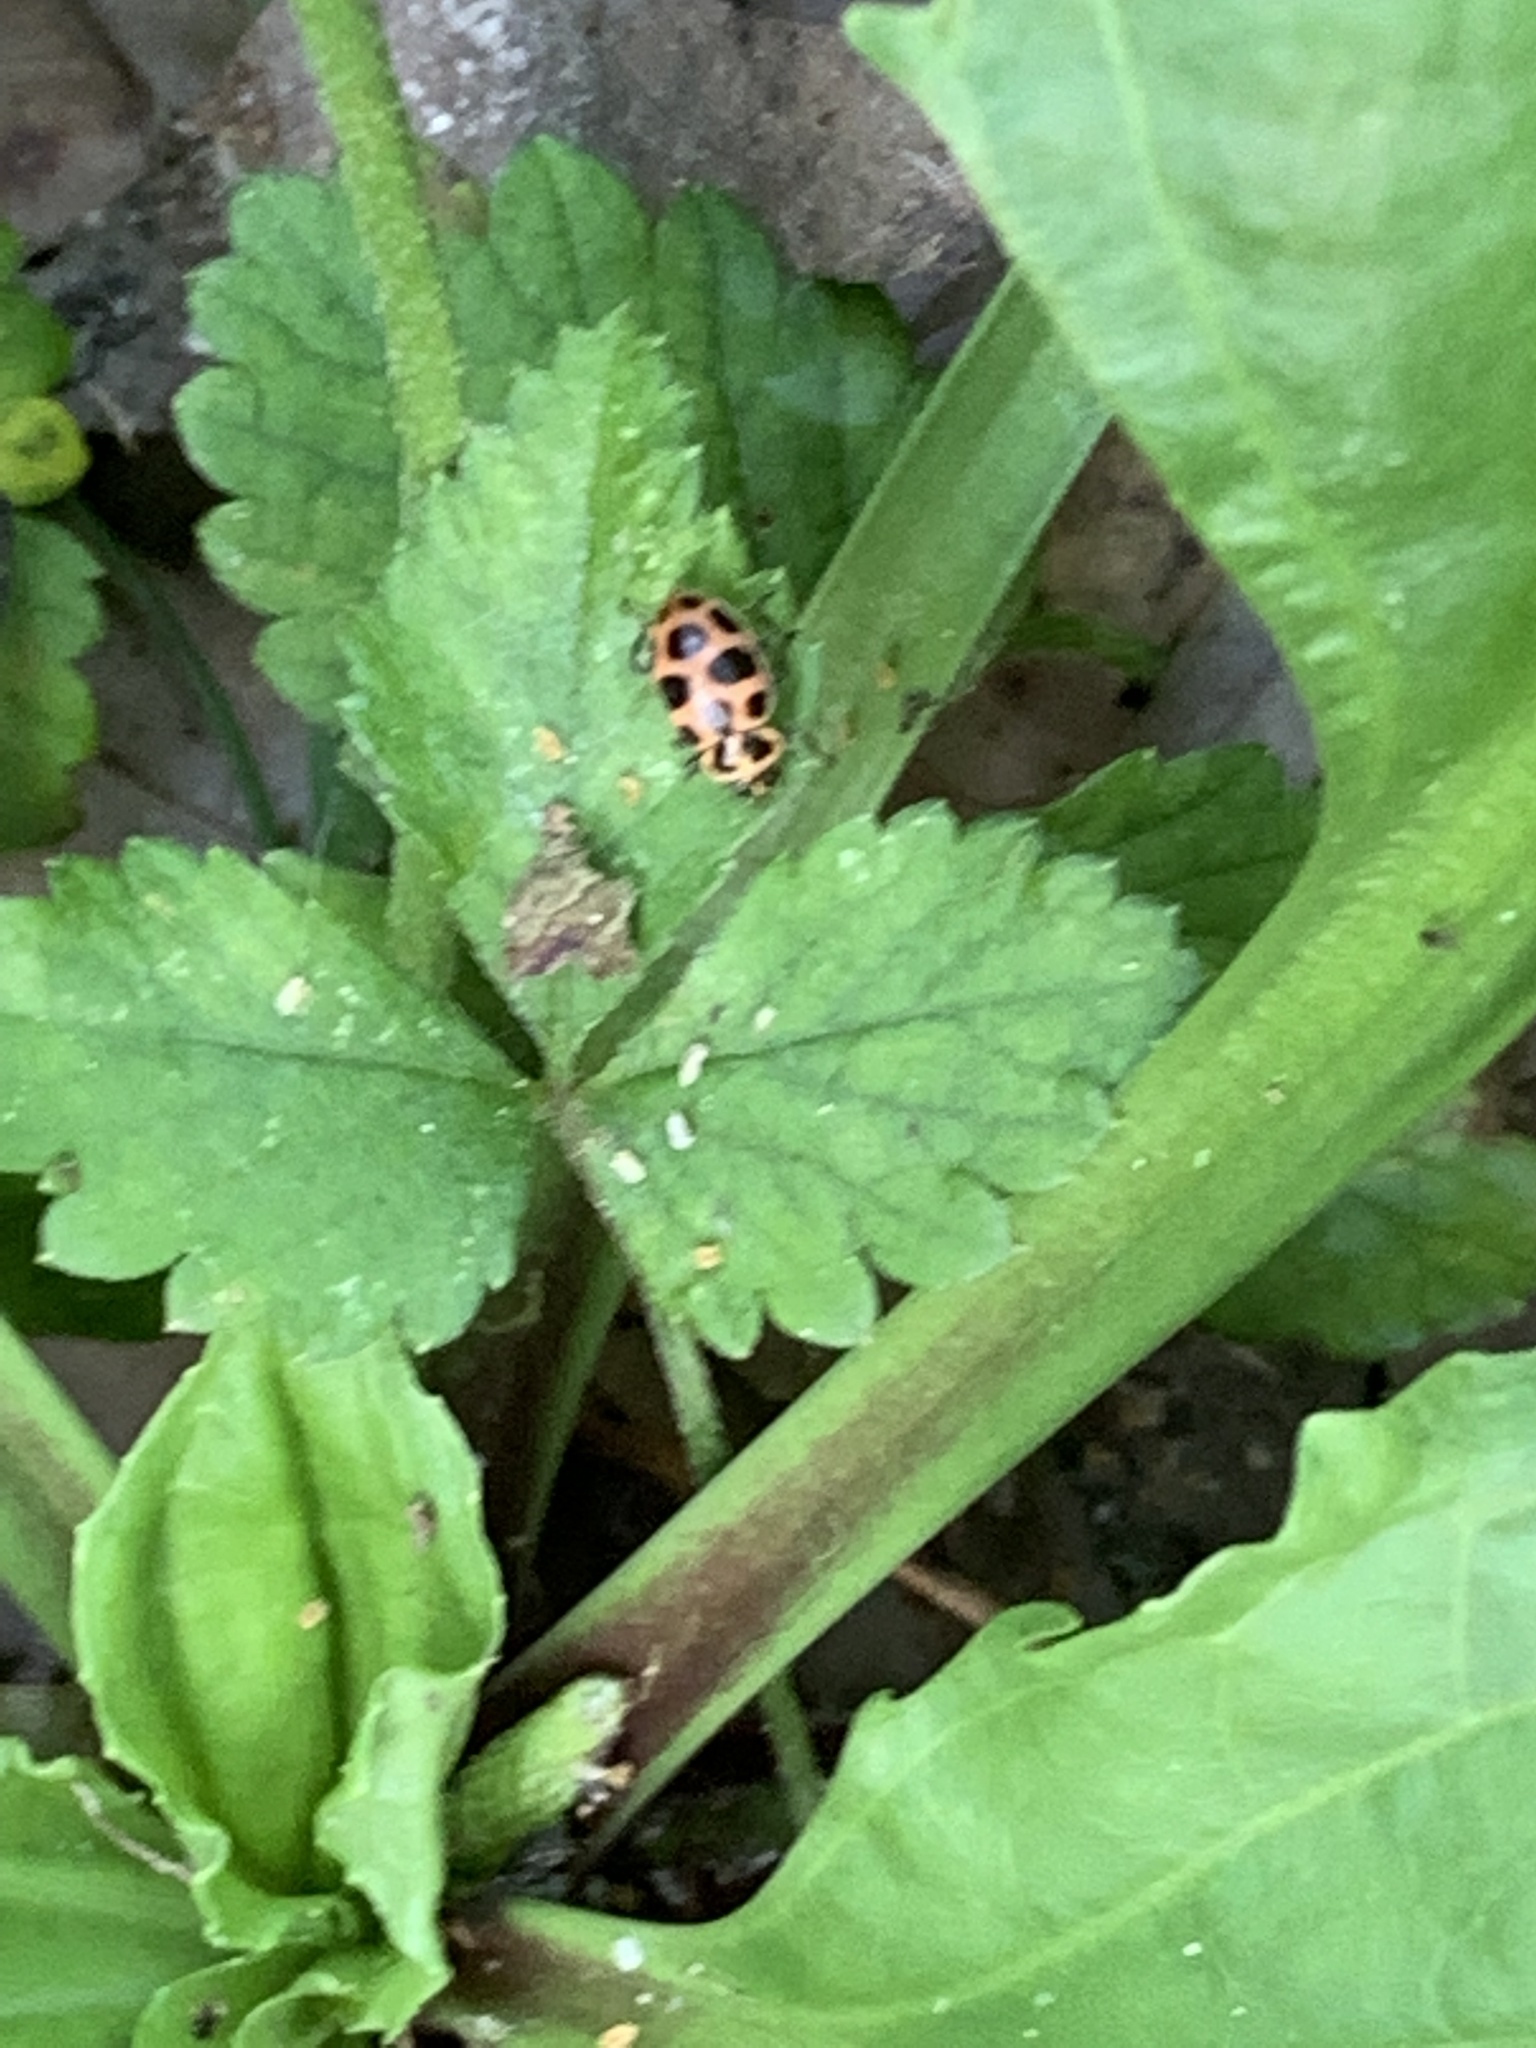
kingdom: Animalia
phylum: Arthropoda
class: Insecta
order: Coleoptera
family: Coccinellidae
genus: Coleomegilla
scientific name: Coleomegilla maculata
